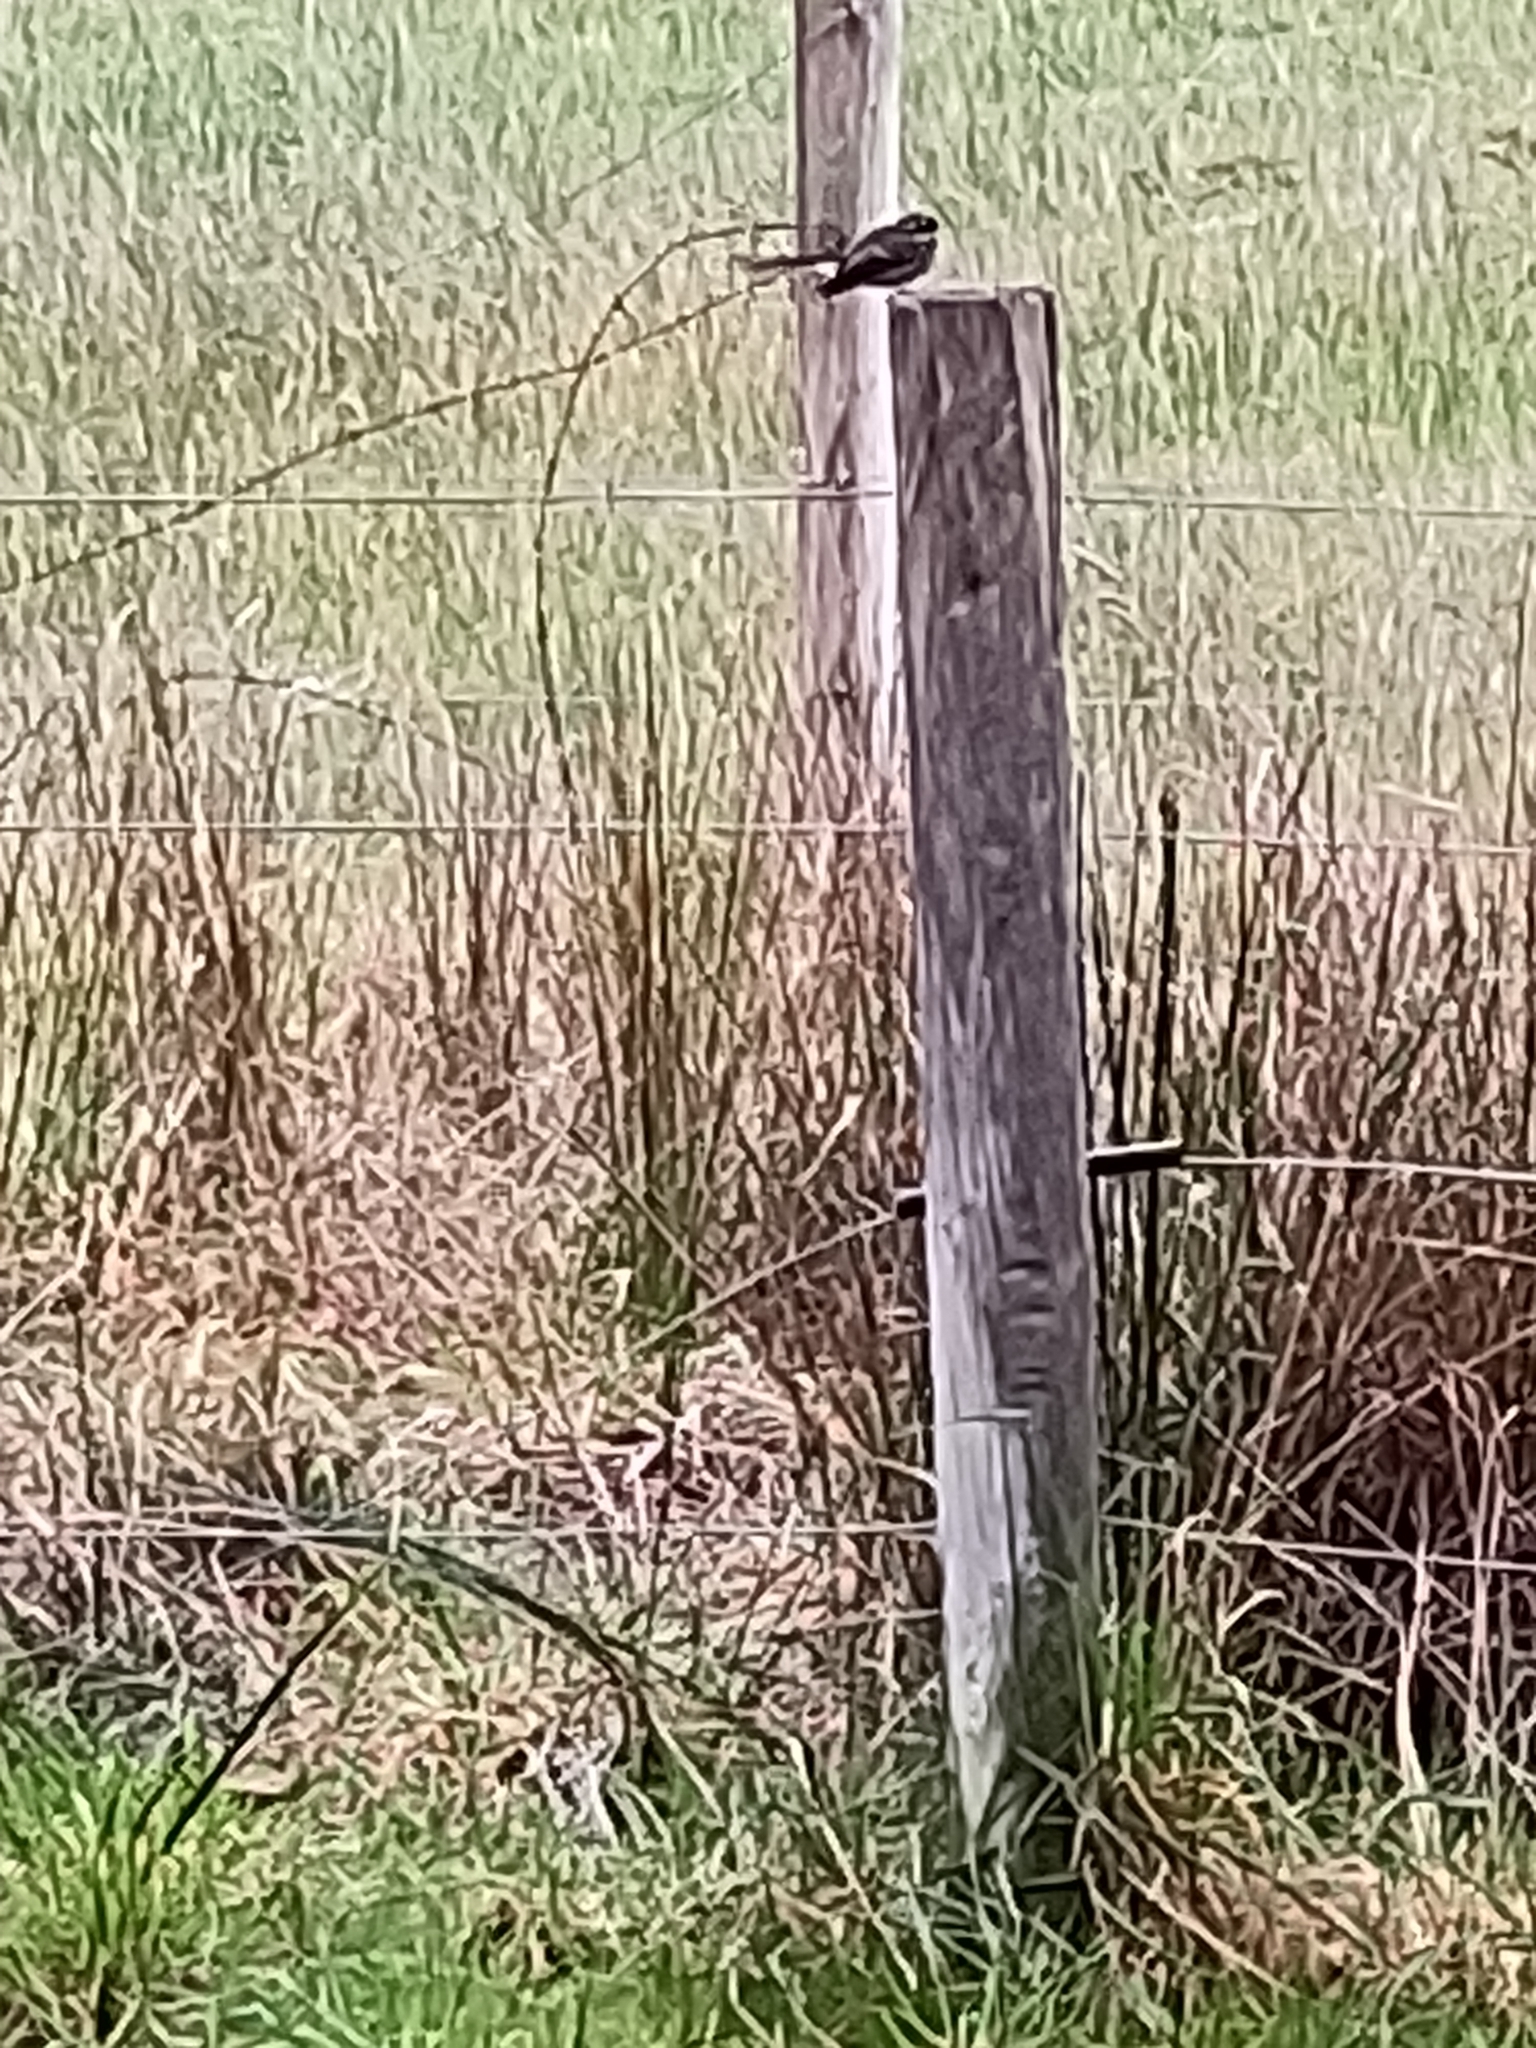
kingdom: Animalia
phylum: Chordata
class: Aves
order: Passeriformes
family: Rhipiduridae
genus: Rhipidura
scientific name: Rhipidura albiscapa
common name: Grey fantail
